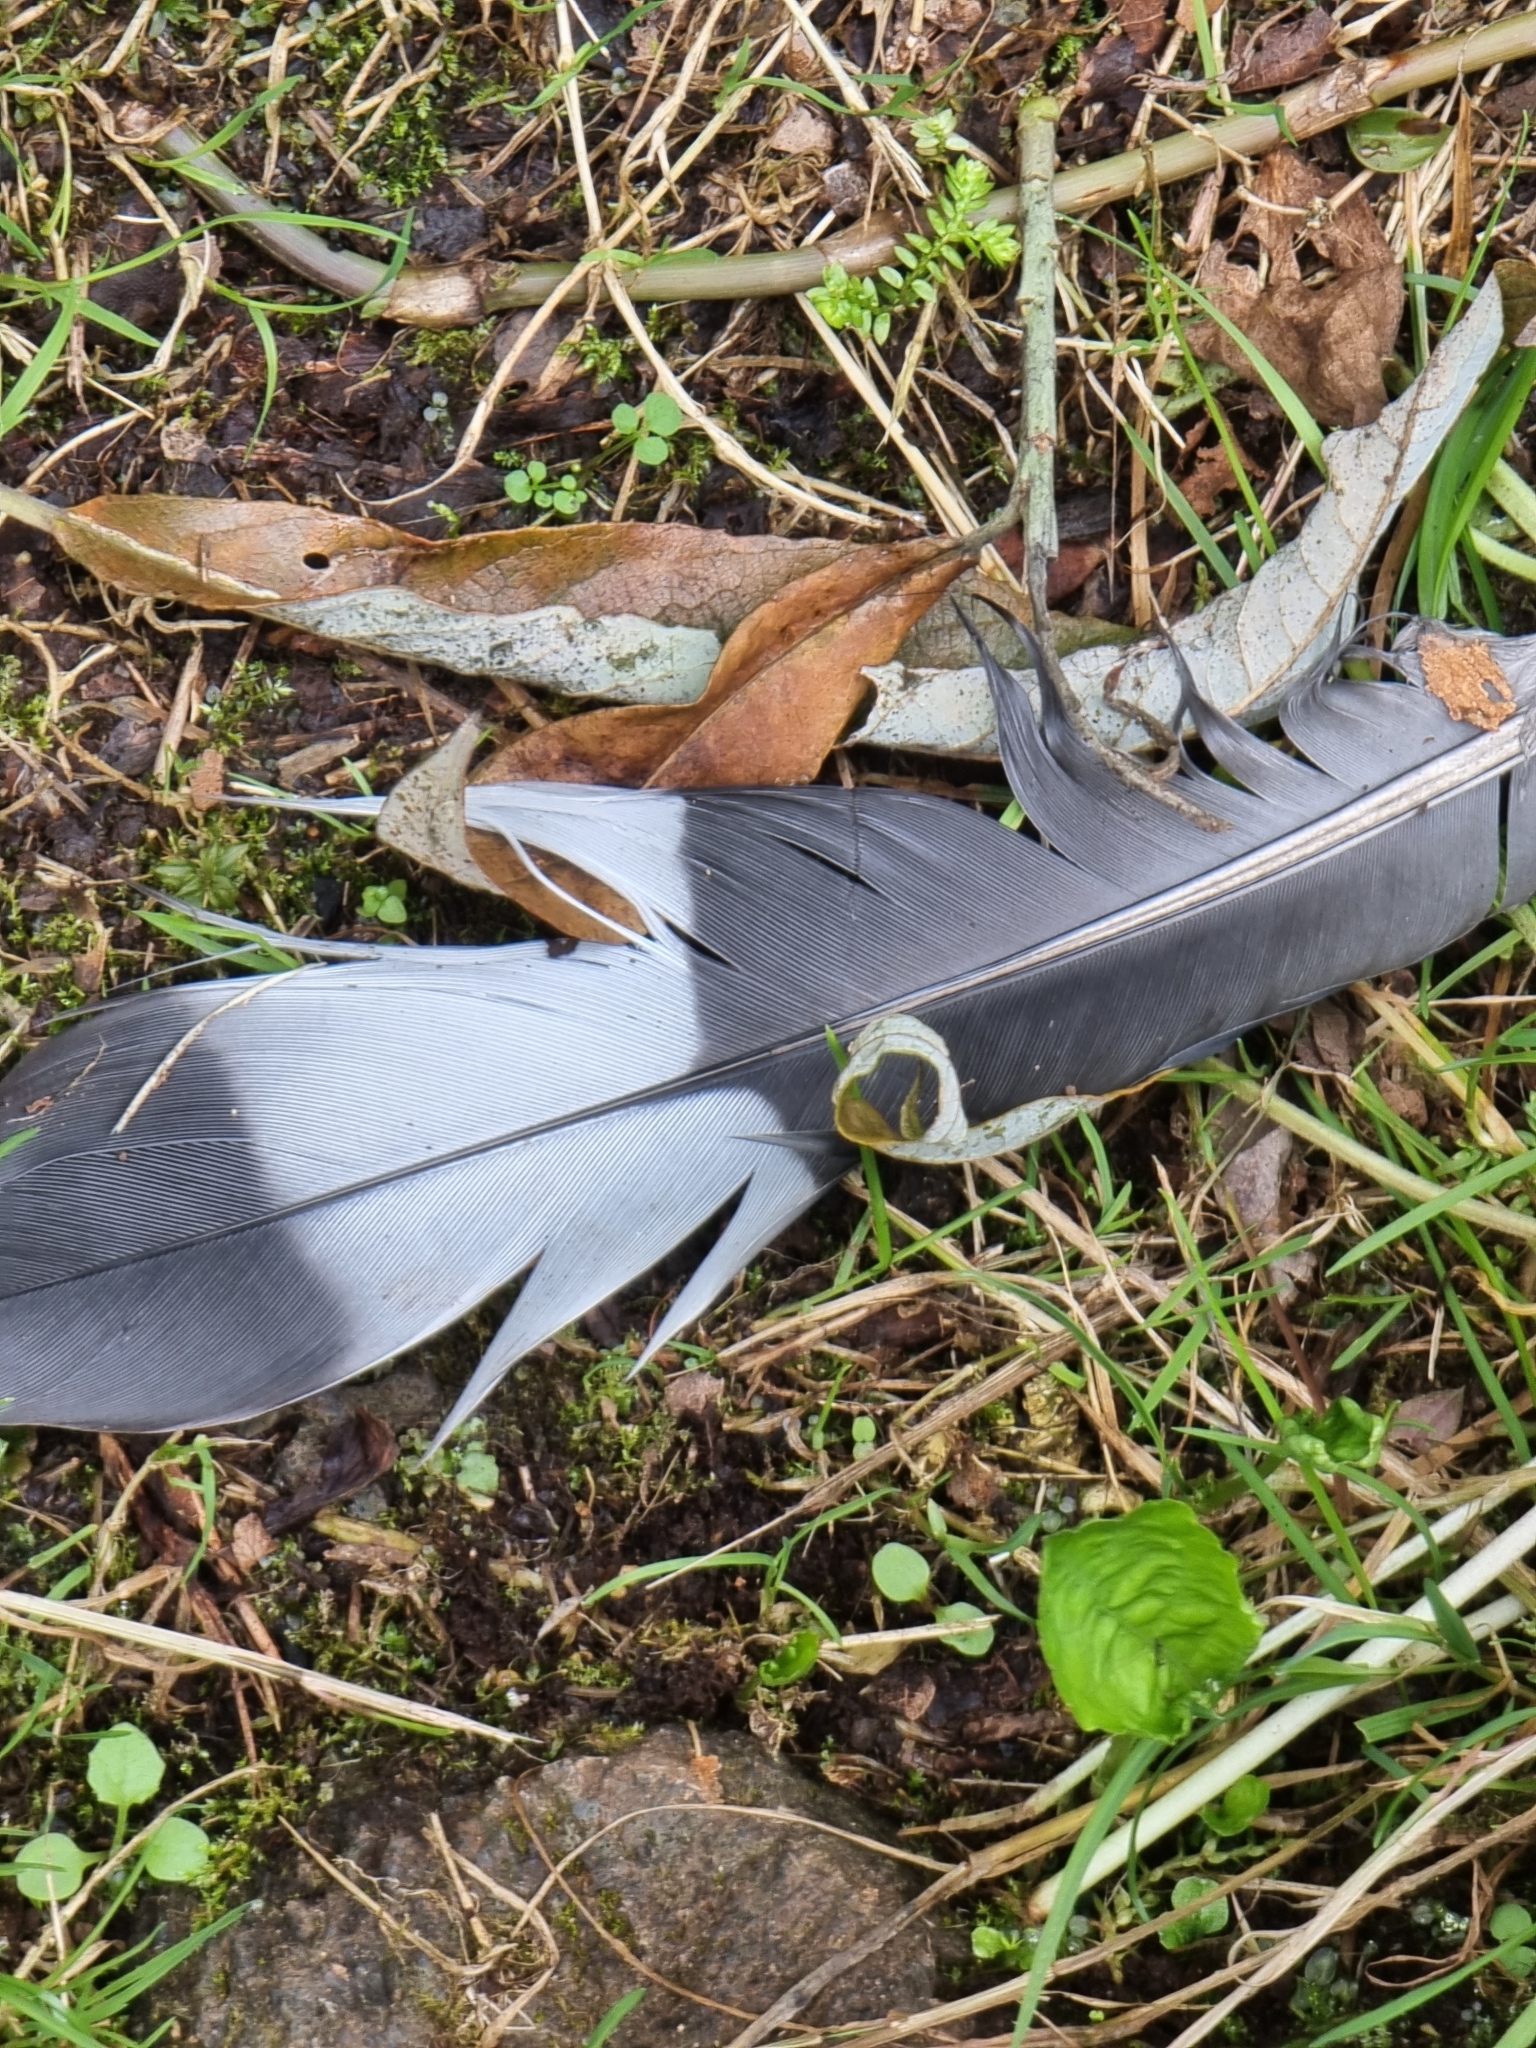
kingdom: Animalia
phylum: Chordata
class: Aves
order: Columbiformes
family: Columbidae
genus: Columba
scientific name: Columba trocaz
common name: Trocaz pigeon
